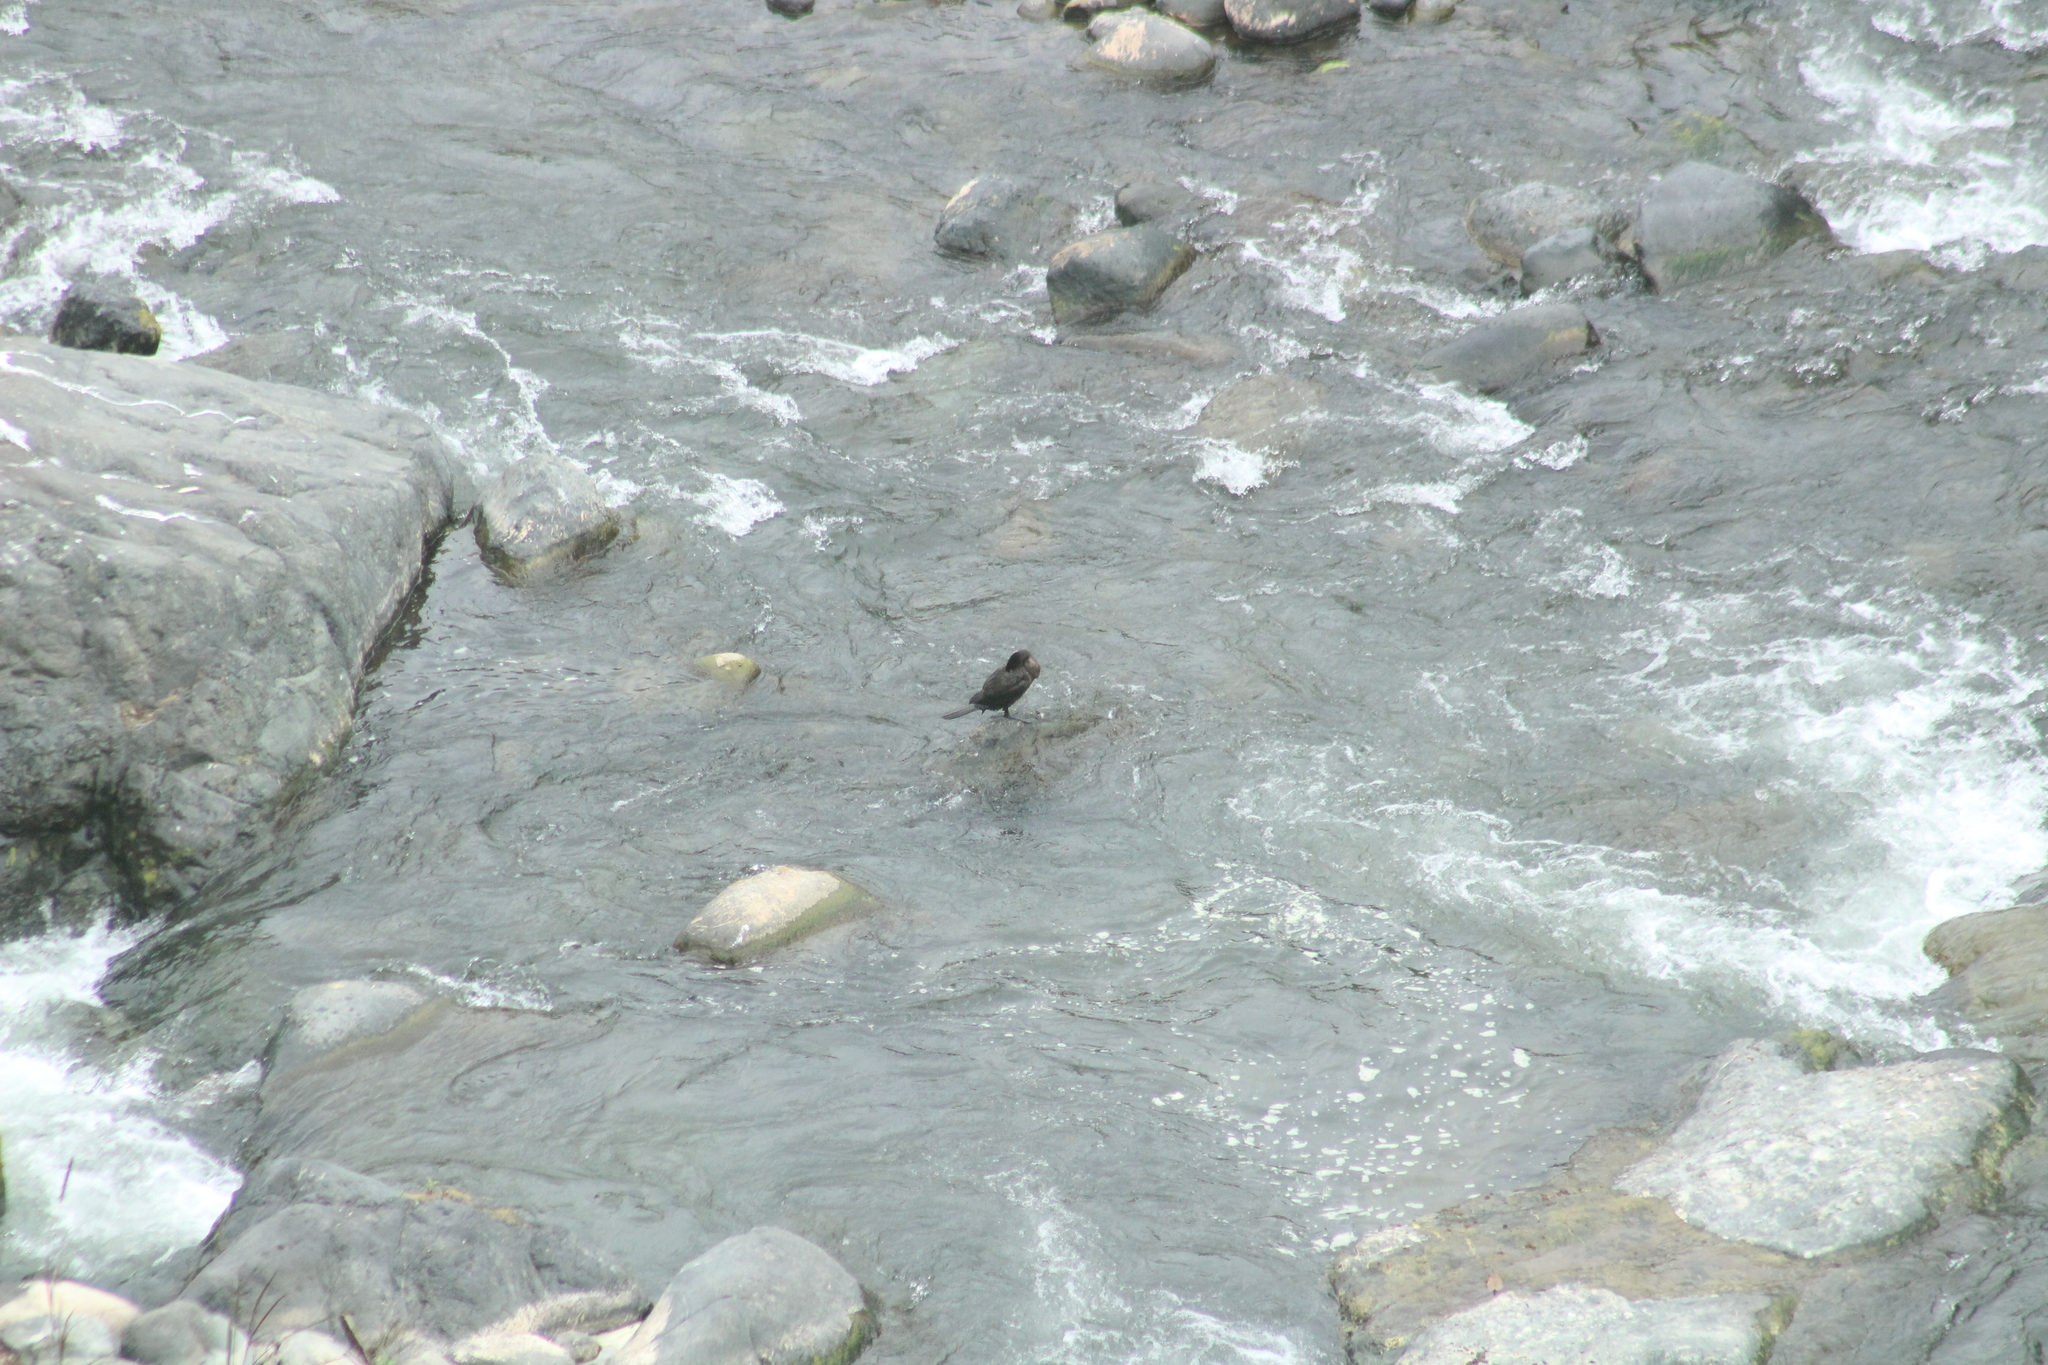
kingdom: Animalia
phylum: Chordata
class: Aves
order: Suliformes
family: Phalacrocoracidae
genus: Phalacrocorax
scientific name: Phalacrocorax brasilianus
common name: Neotropic cormorant
